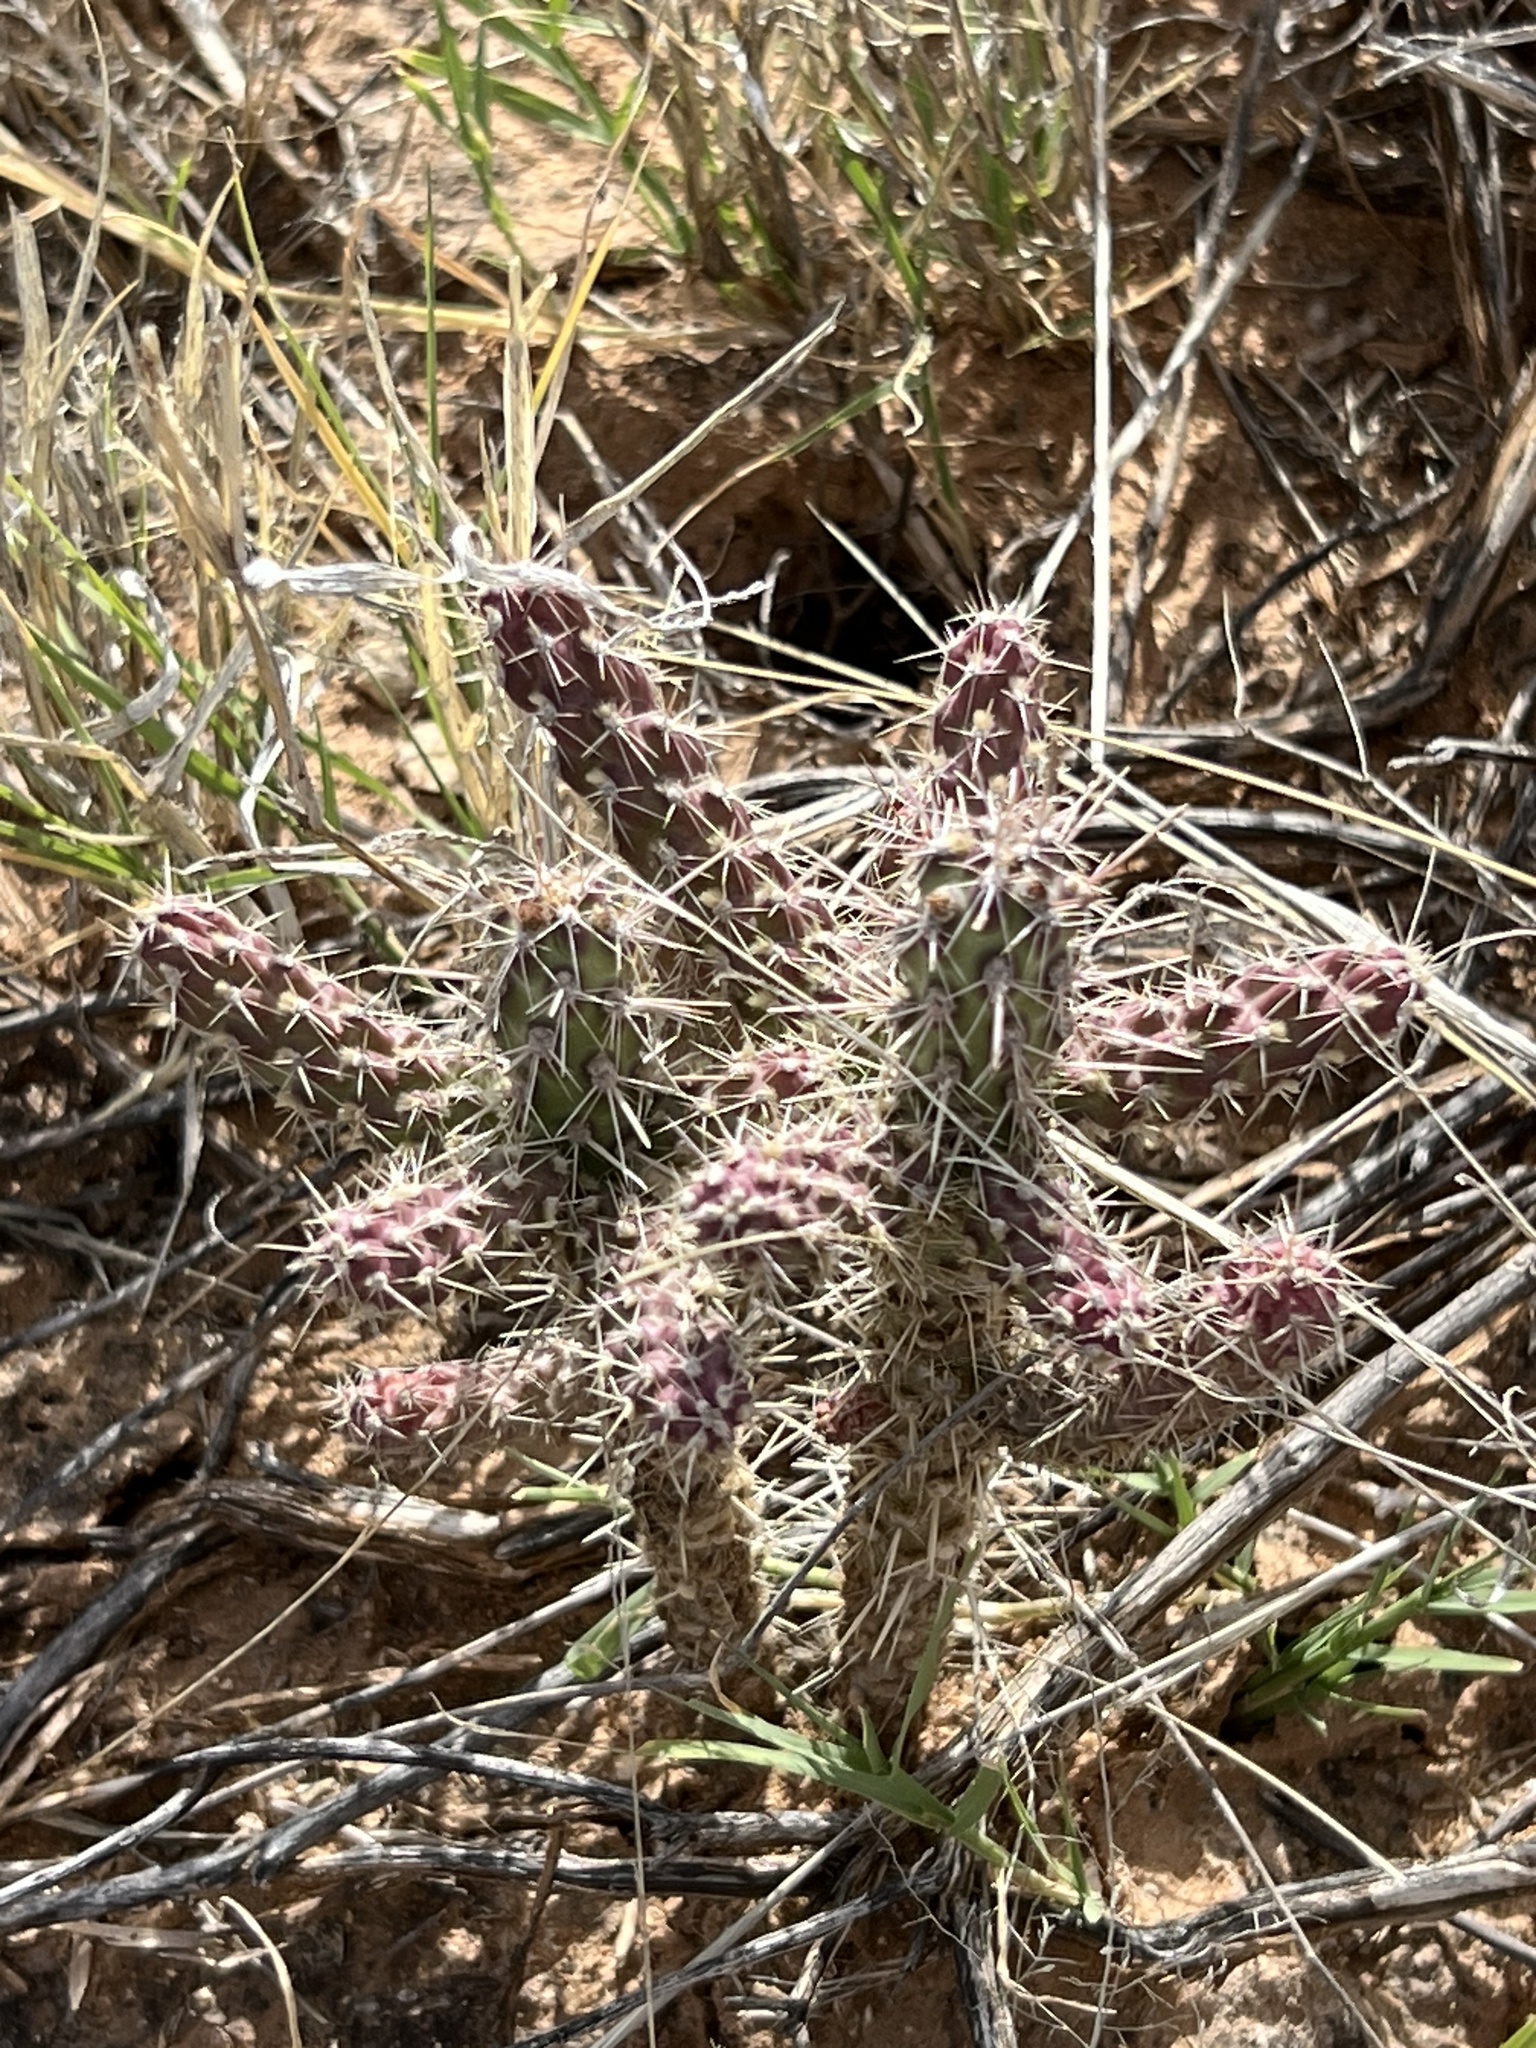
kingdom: Plantae
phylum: Tracheophyta
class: Magnoliopsida
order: Caryophyllales
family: Cactaceae
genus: Cylindropuntia
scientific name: Cylindropuntia imbricata
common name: Candelabrum cactus
